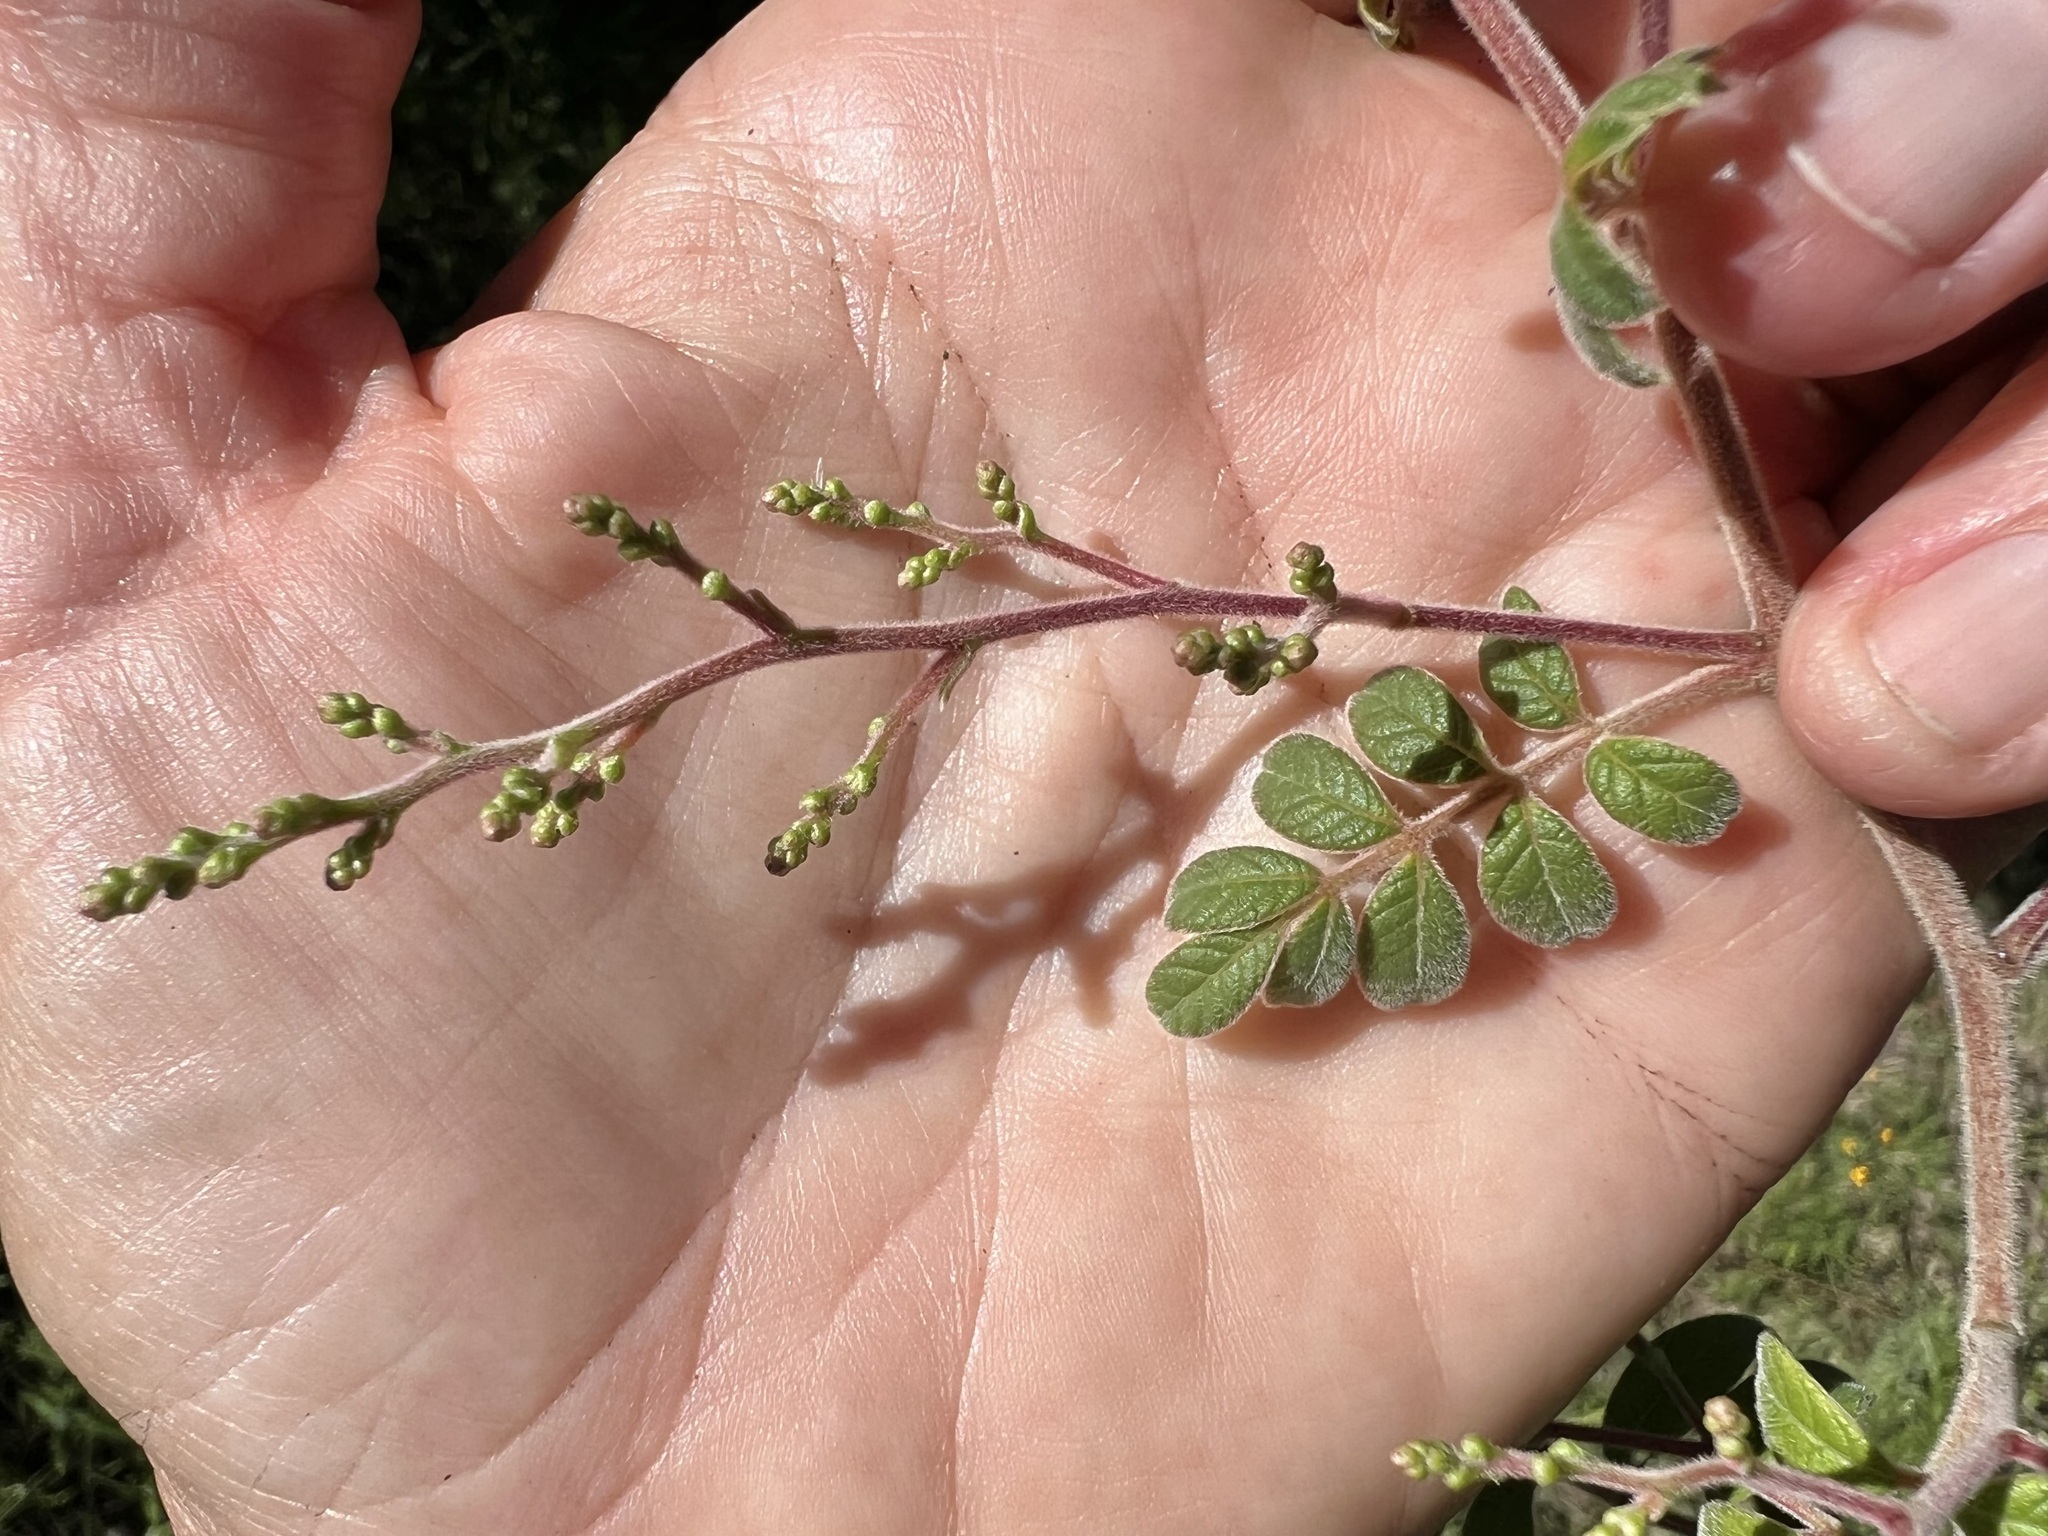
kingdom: Plantae
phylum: Tracheophyta
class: Magnoliopsida
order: Sapindales
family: Anacardiaceae
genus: Rhus
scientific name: Rhus terebinthifolia
